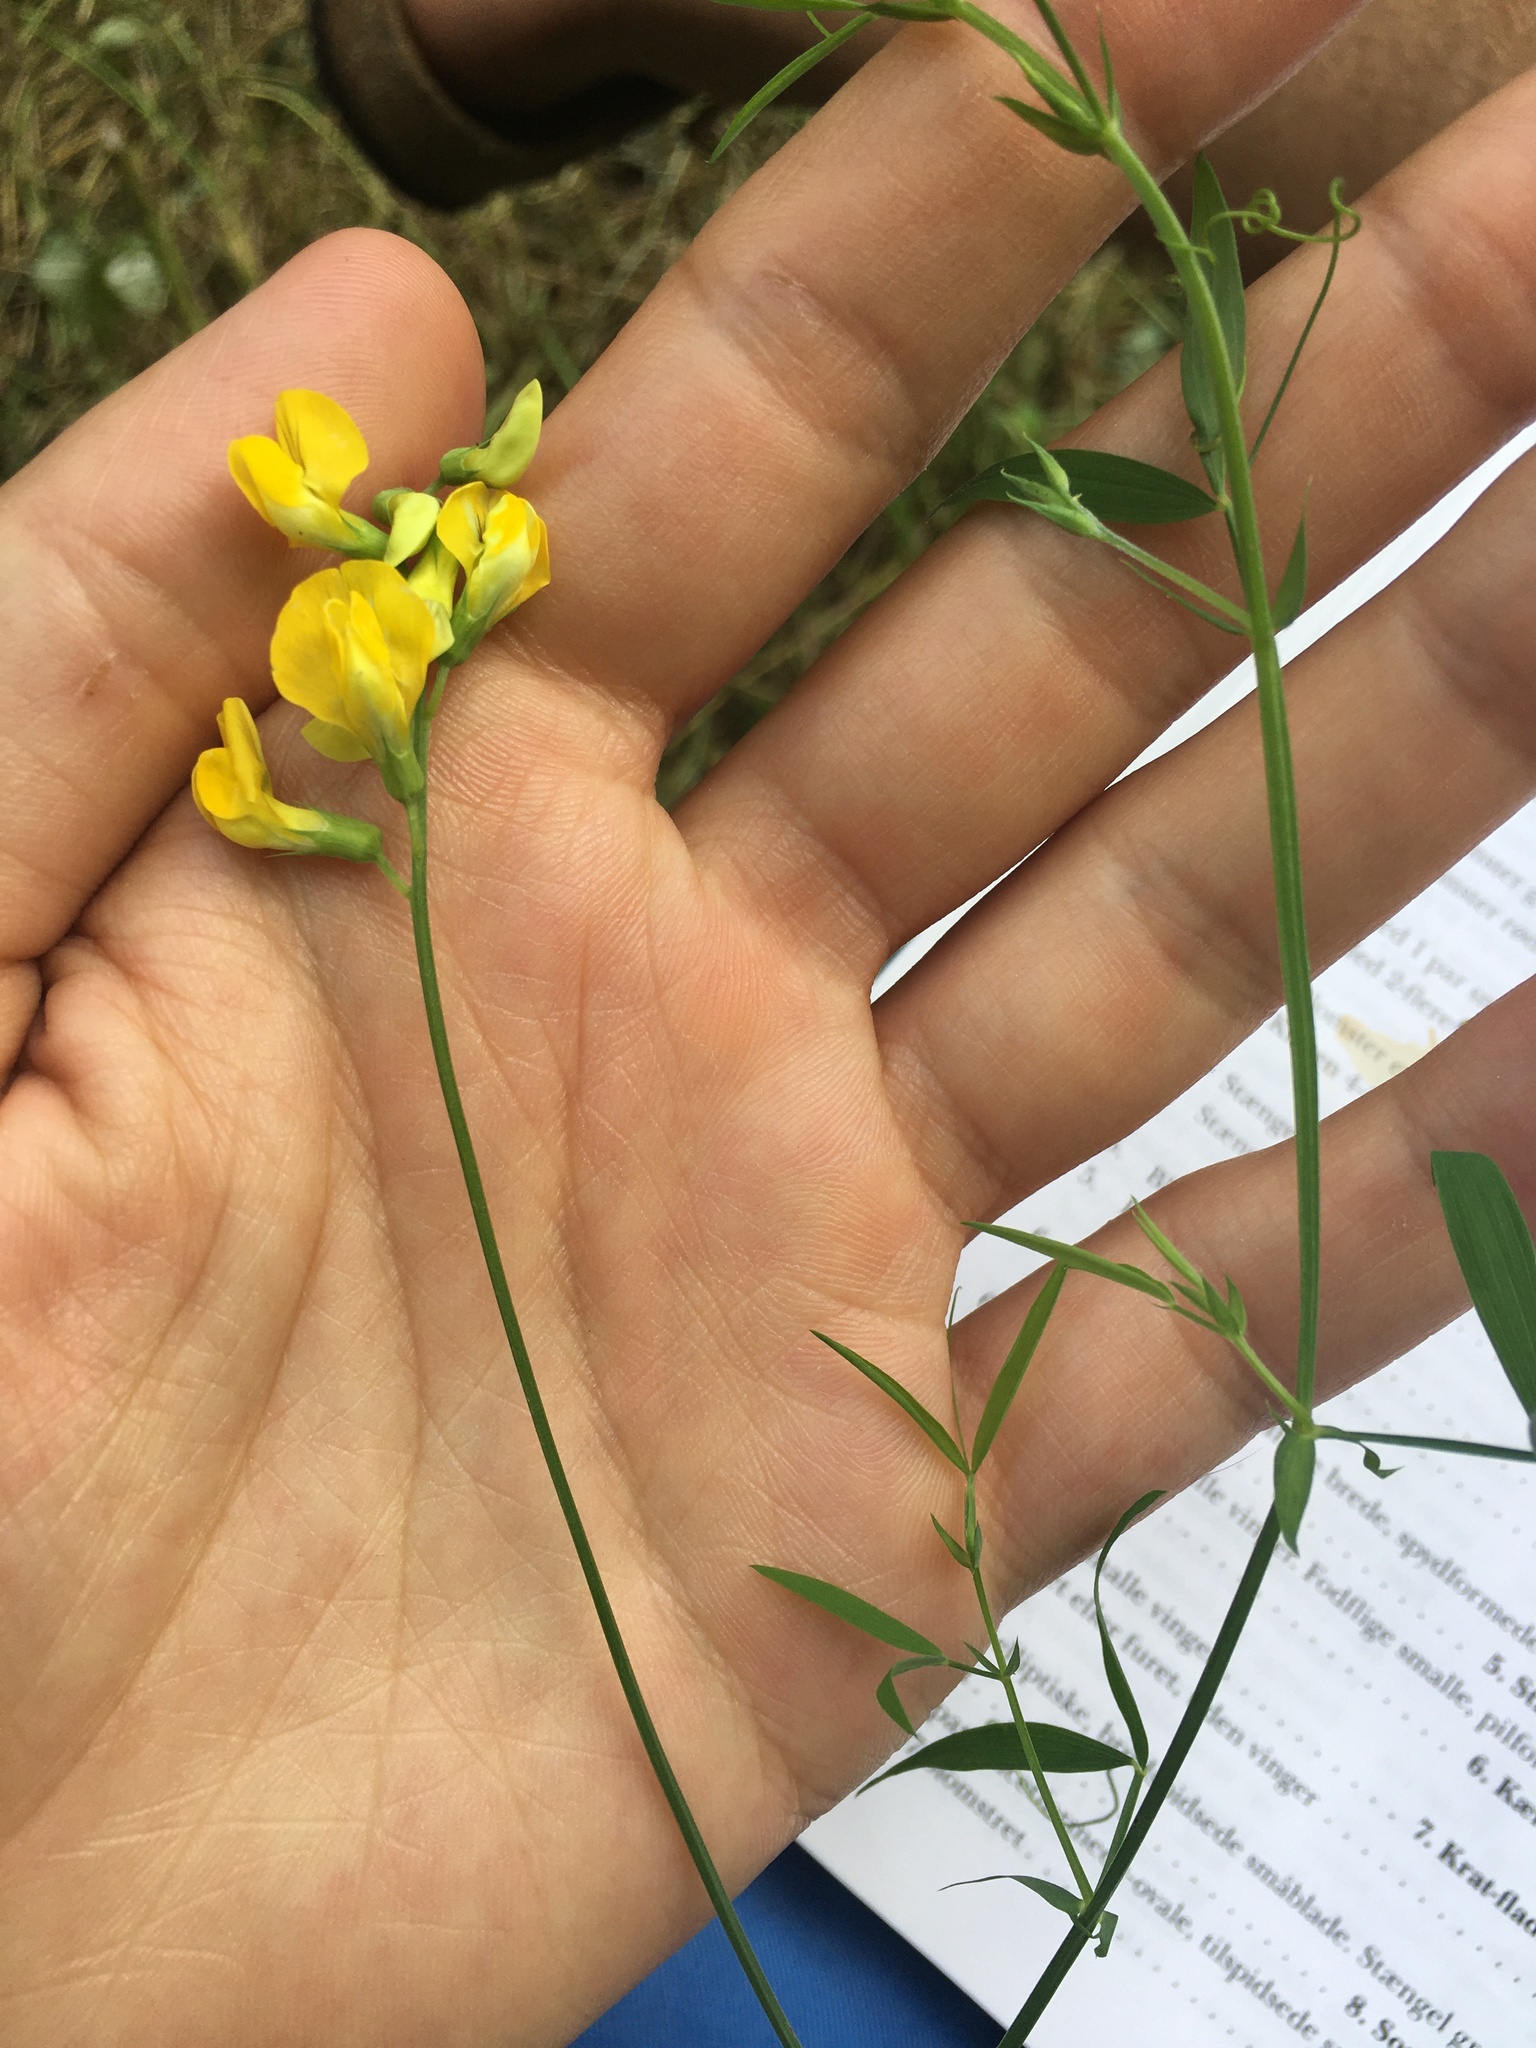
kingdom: Plantae
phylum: Tracheophyta
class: Magnoliopsida
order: Fabales
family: Fabaceae
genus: Lathyrus
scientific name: Lathyrus pratensis
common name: Meadow vetchling
